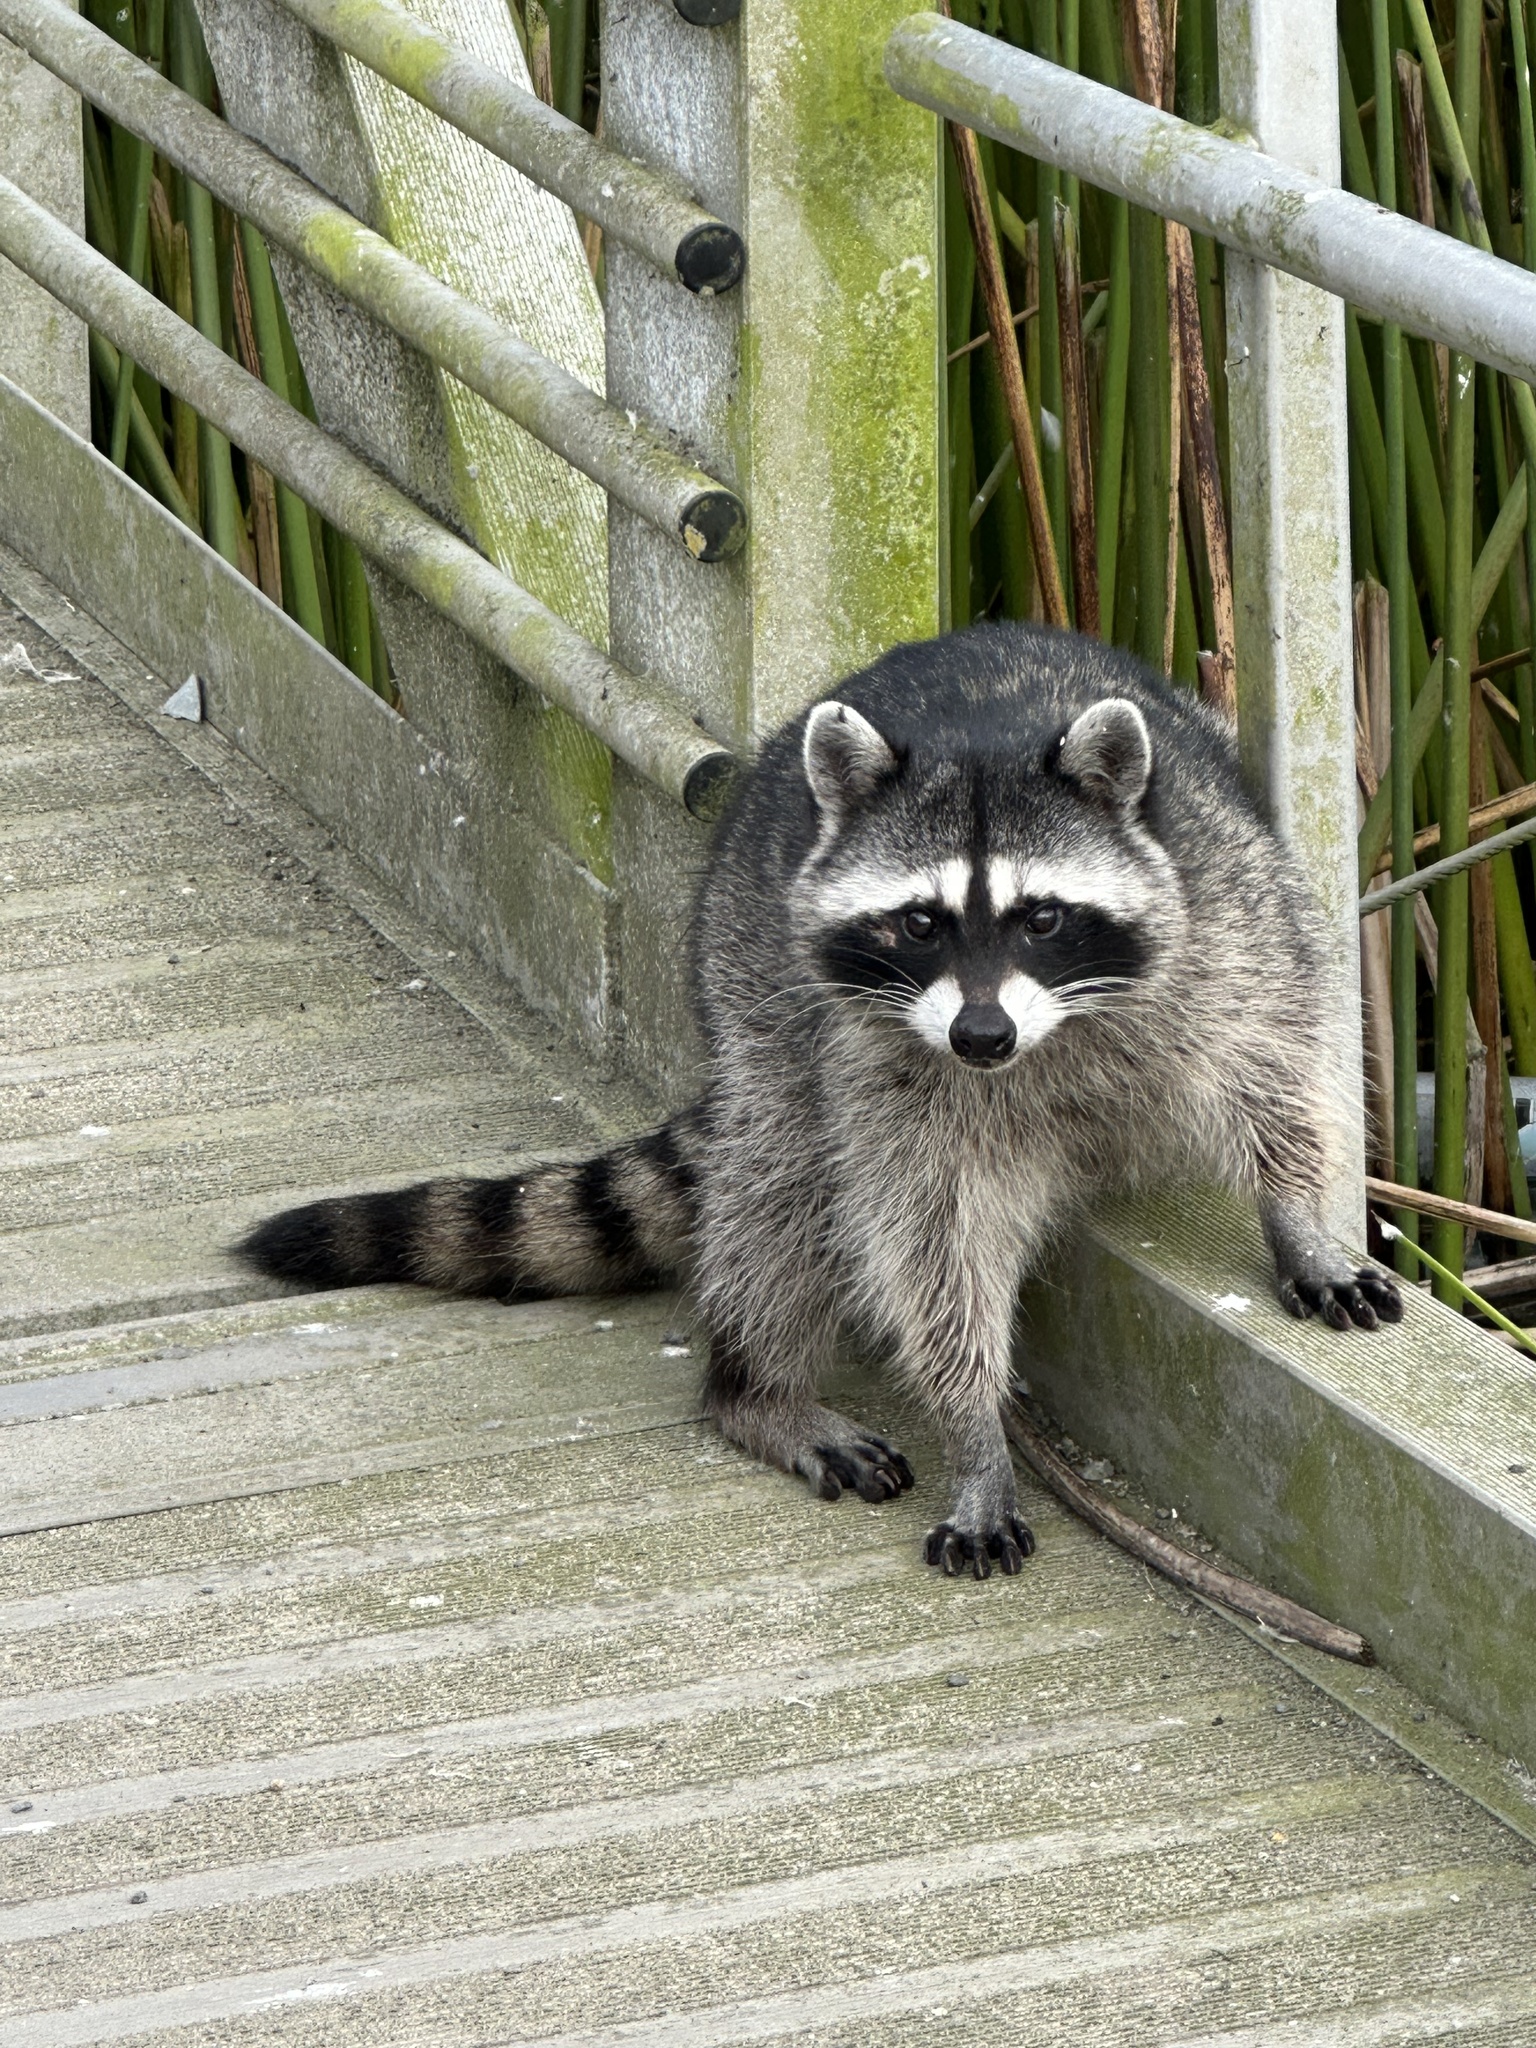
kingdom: Animalia
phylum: Chordata
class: Mammalia
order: Carnivora
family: Procyonidae
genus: Procyon
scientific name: Procyon lotor
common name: Raccoon
